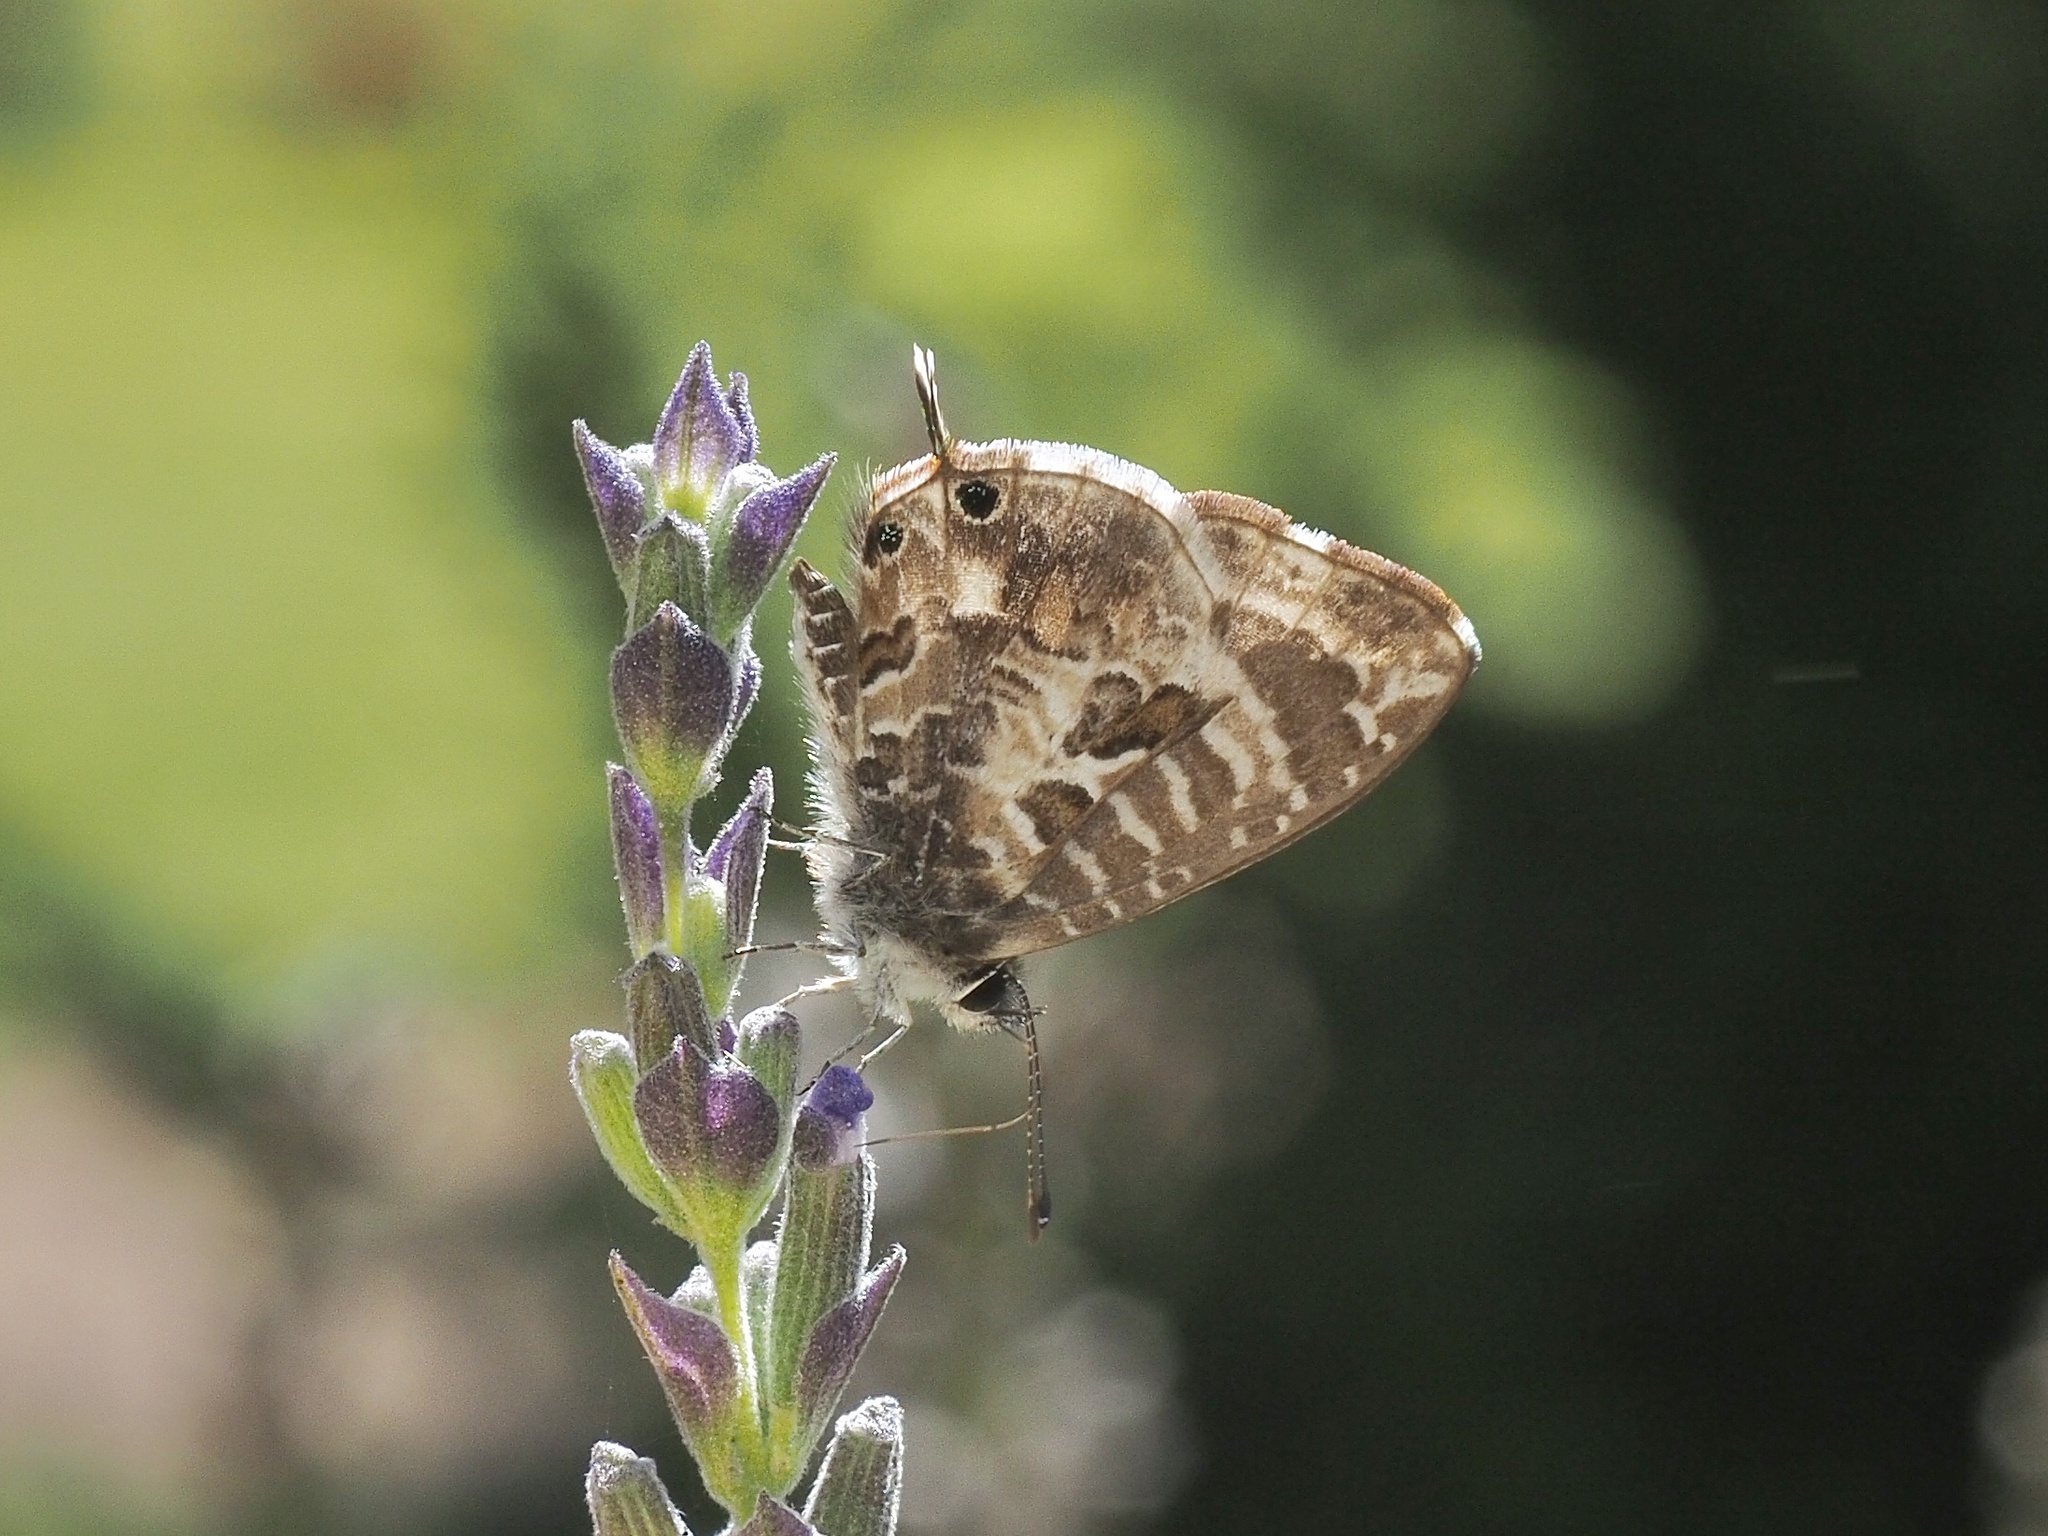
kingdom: Animalia
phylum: Arthropoda
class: Insecta
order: Lepidoptera
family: Lycaenidae
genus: Cacyreus
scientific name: Cacyreus lingeus
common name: Bush bronze
